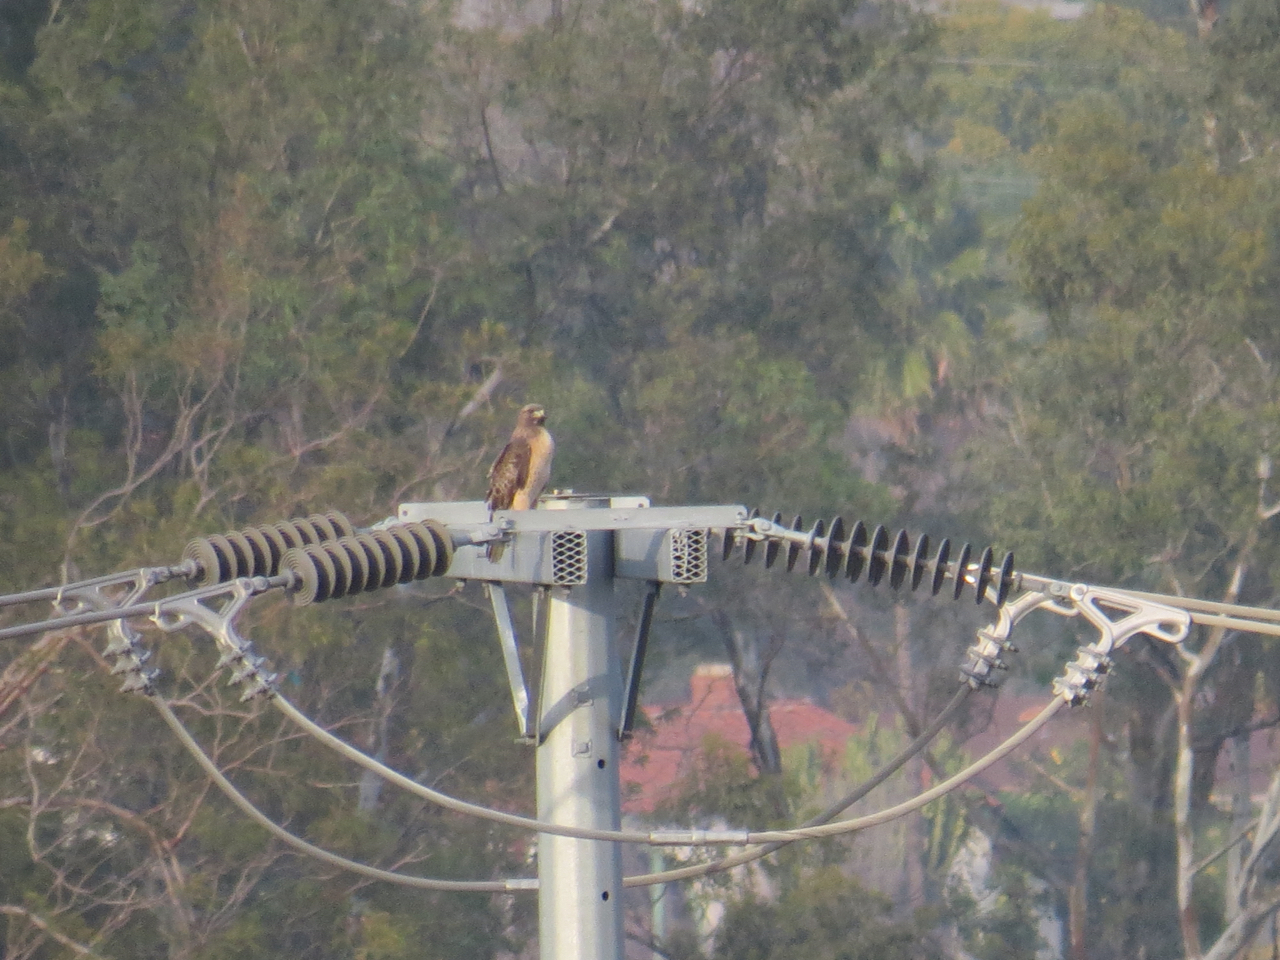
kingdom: Animalia
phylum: Chordata
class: Aves
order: Accipitriformes
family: Accipitridae
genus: Buteo
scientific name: Buteo jamaicensis
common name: Red-tailed hawk
